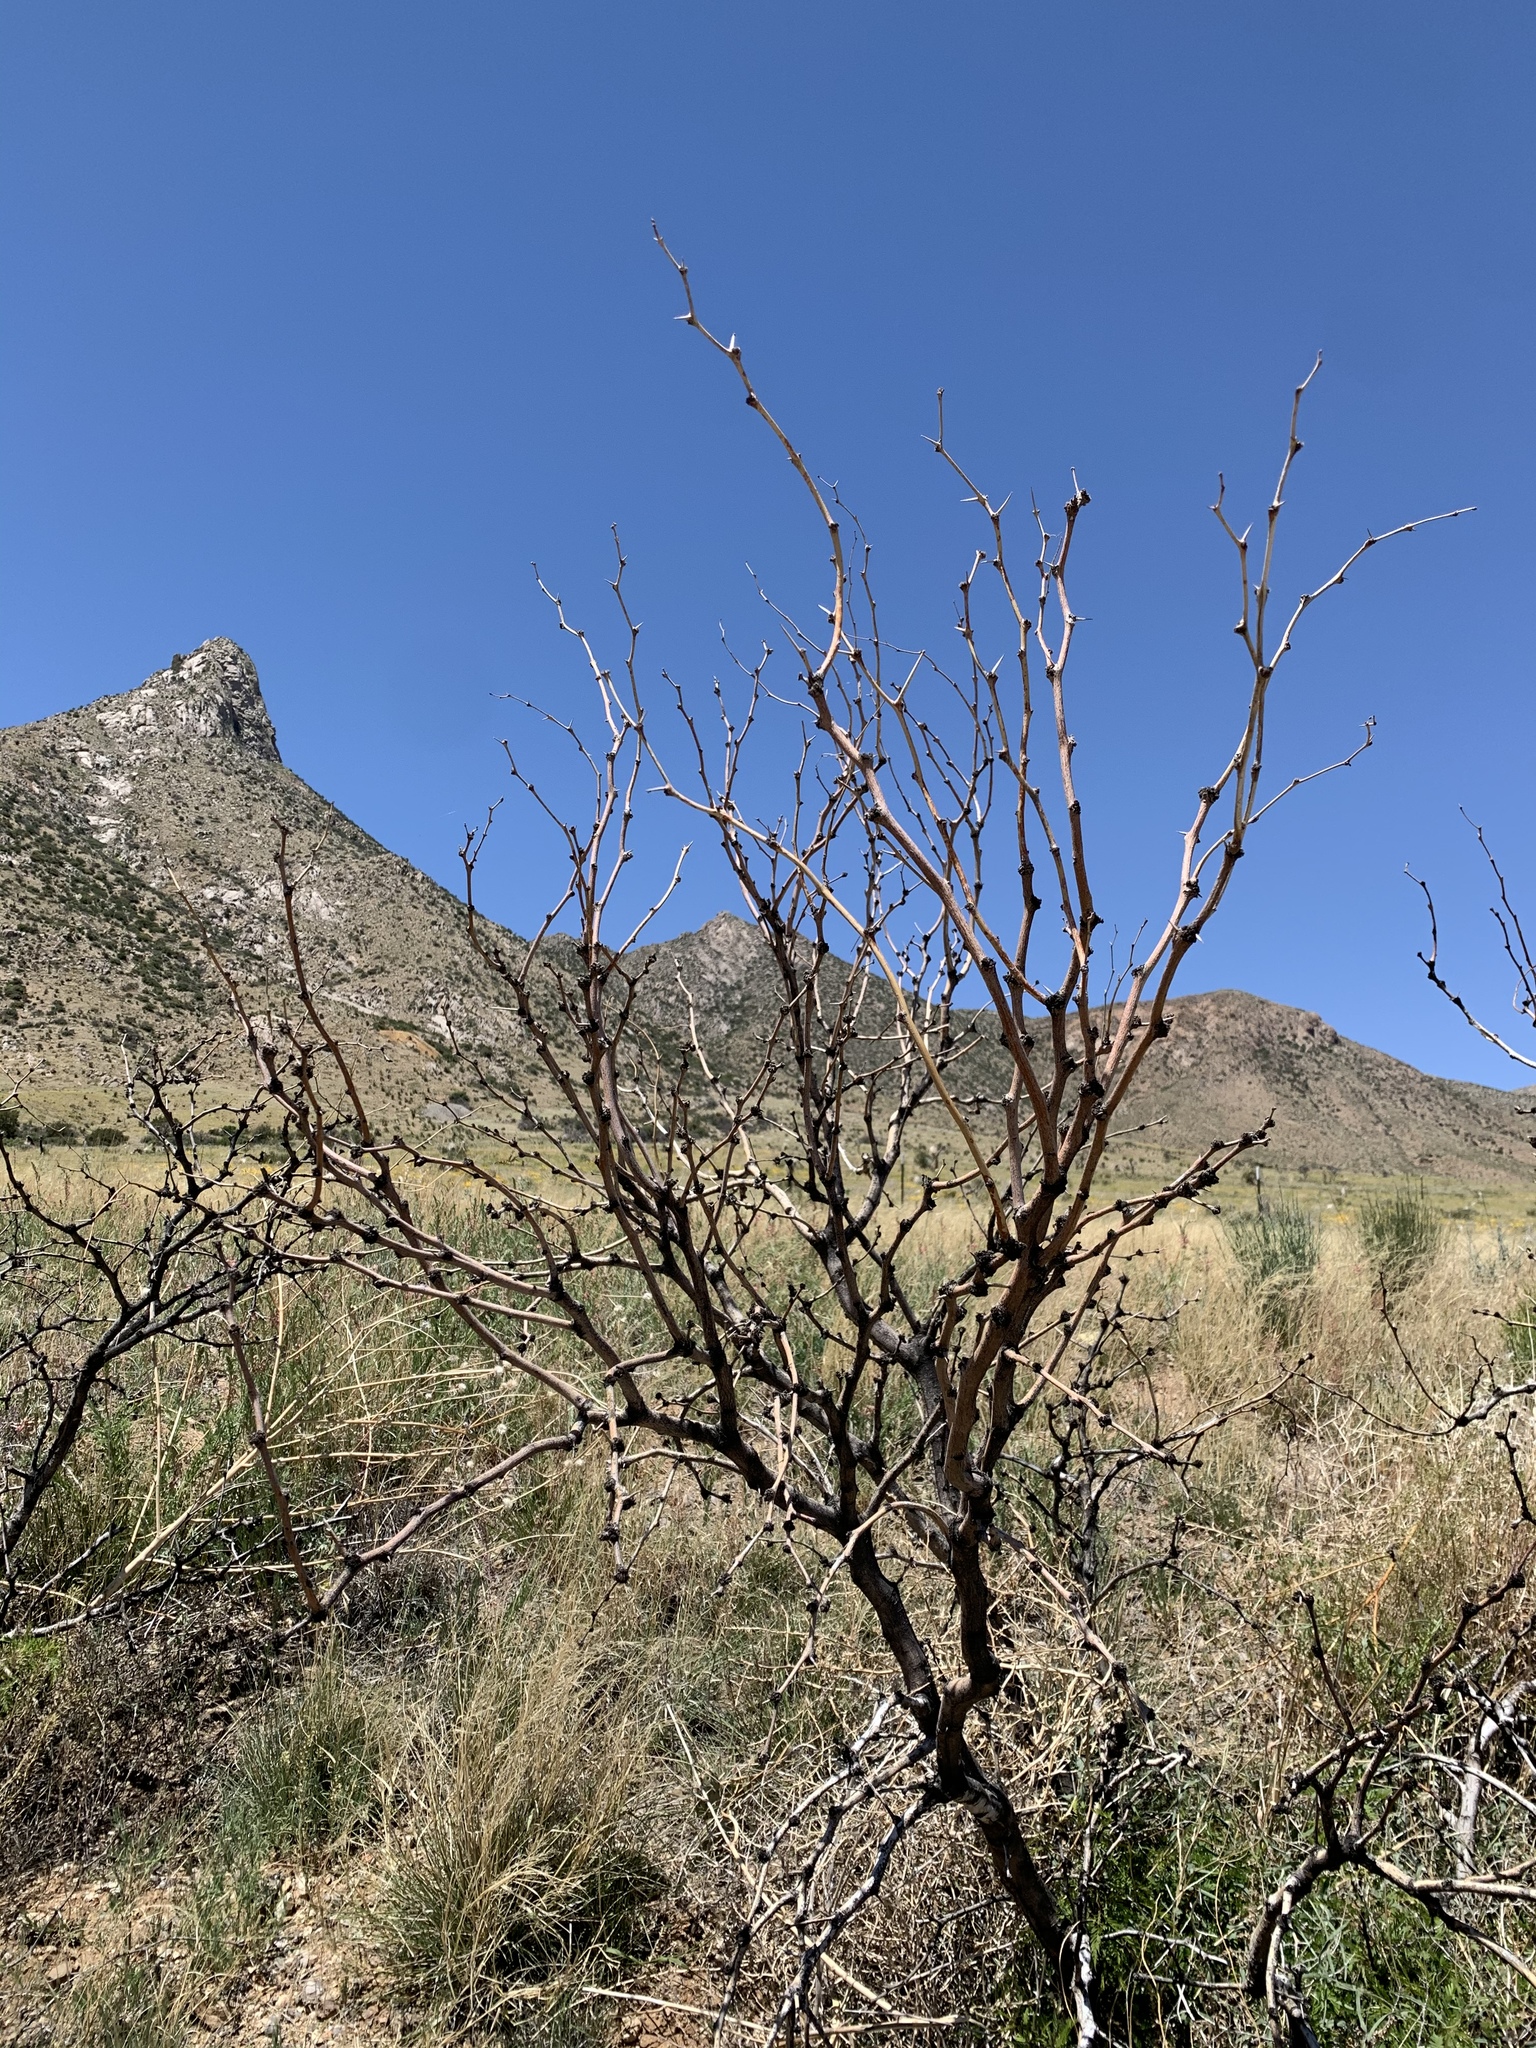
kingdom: Plantae
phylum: Tracheophyta
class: Magnoliopsida
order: Fabales
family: Fabaceae
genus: Prosopis
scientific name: Prosopis glandulosa
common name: Honey mesquite
